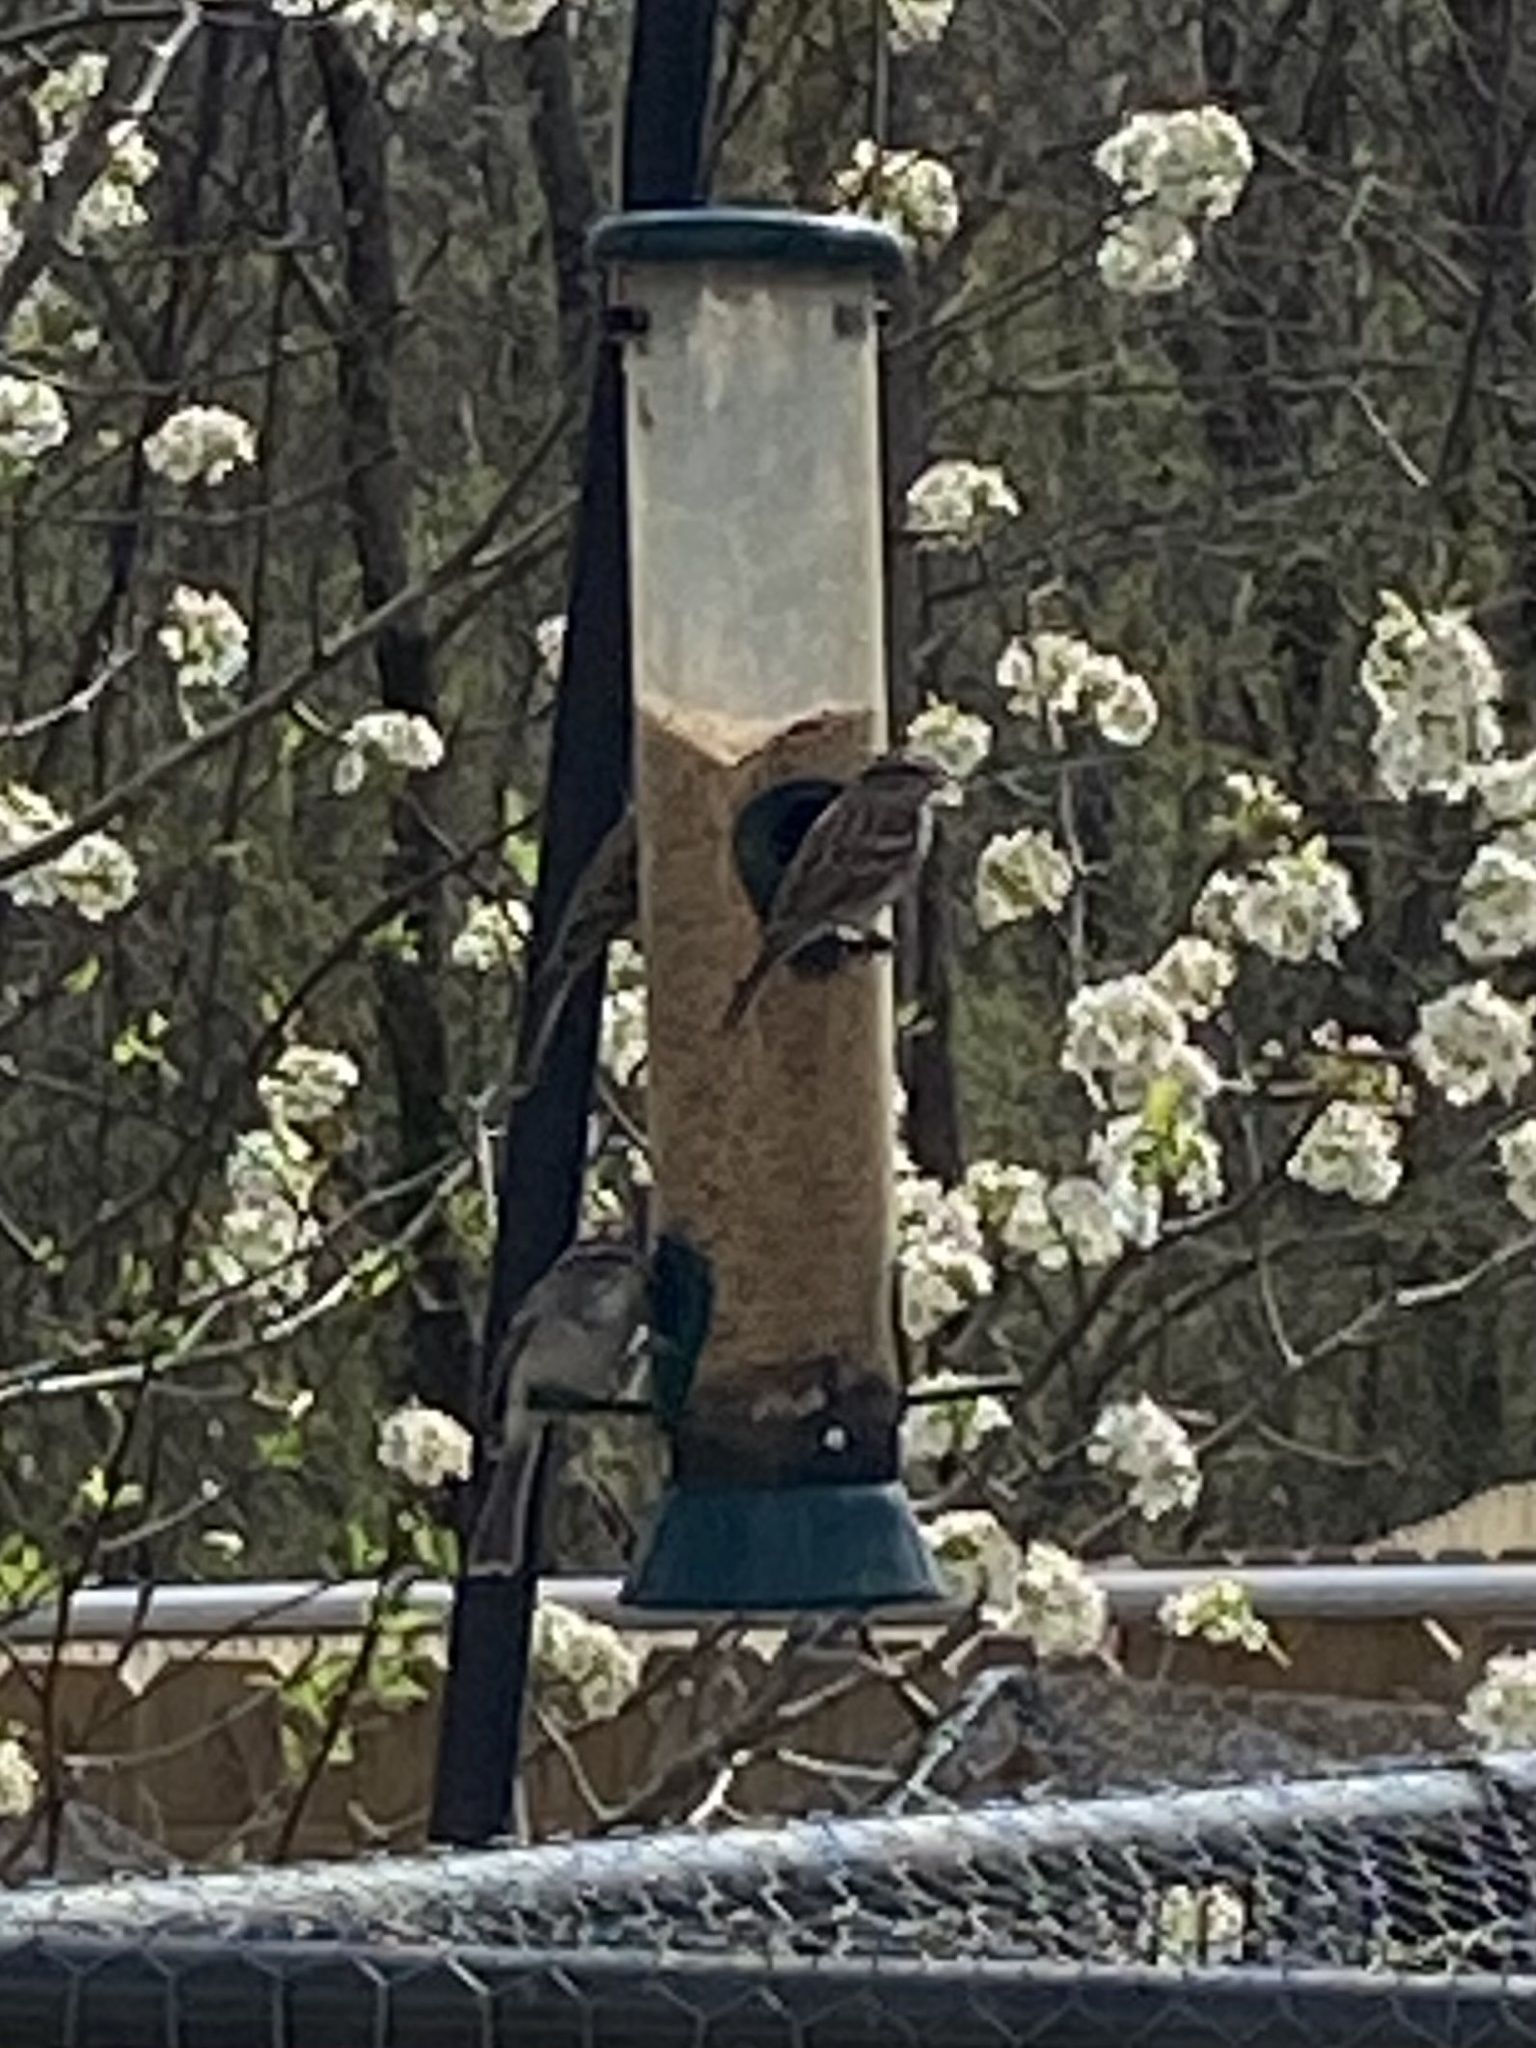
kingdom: Animalia
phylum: Chordata
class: Aves
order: Passeriformes
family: Passerellidae
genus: Spizella
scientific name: Spizella passerina
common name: Chipping sparrow
